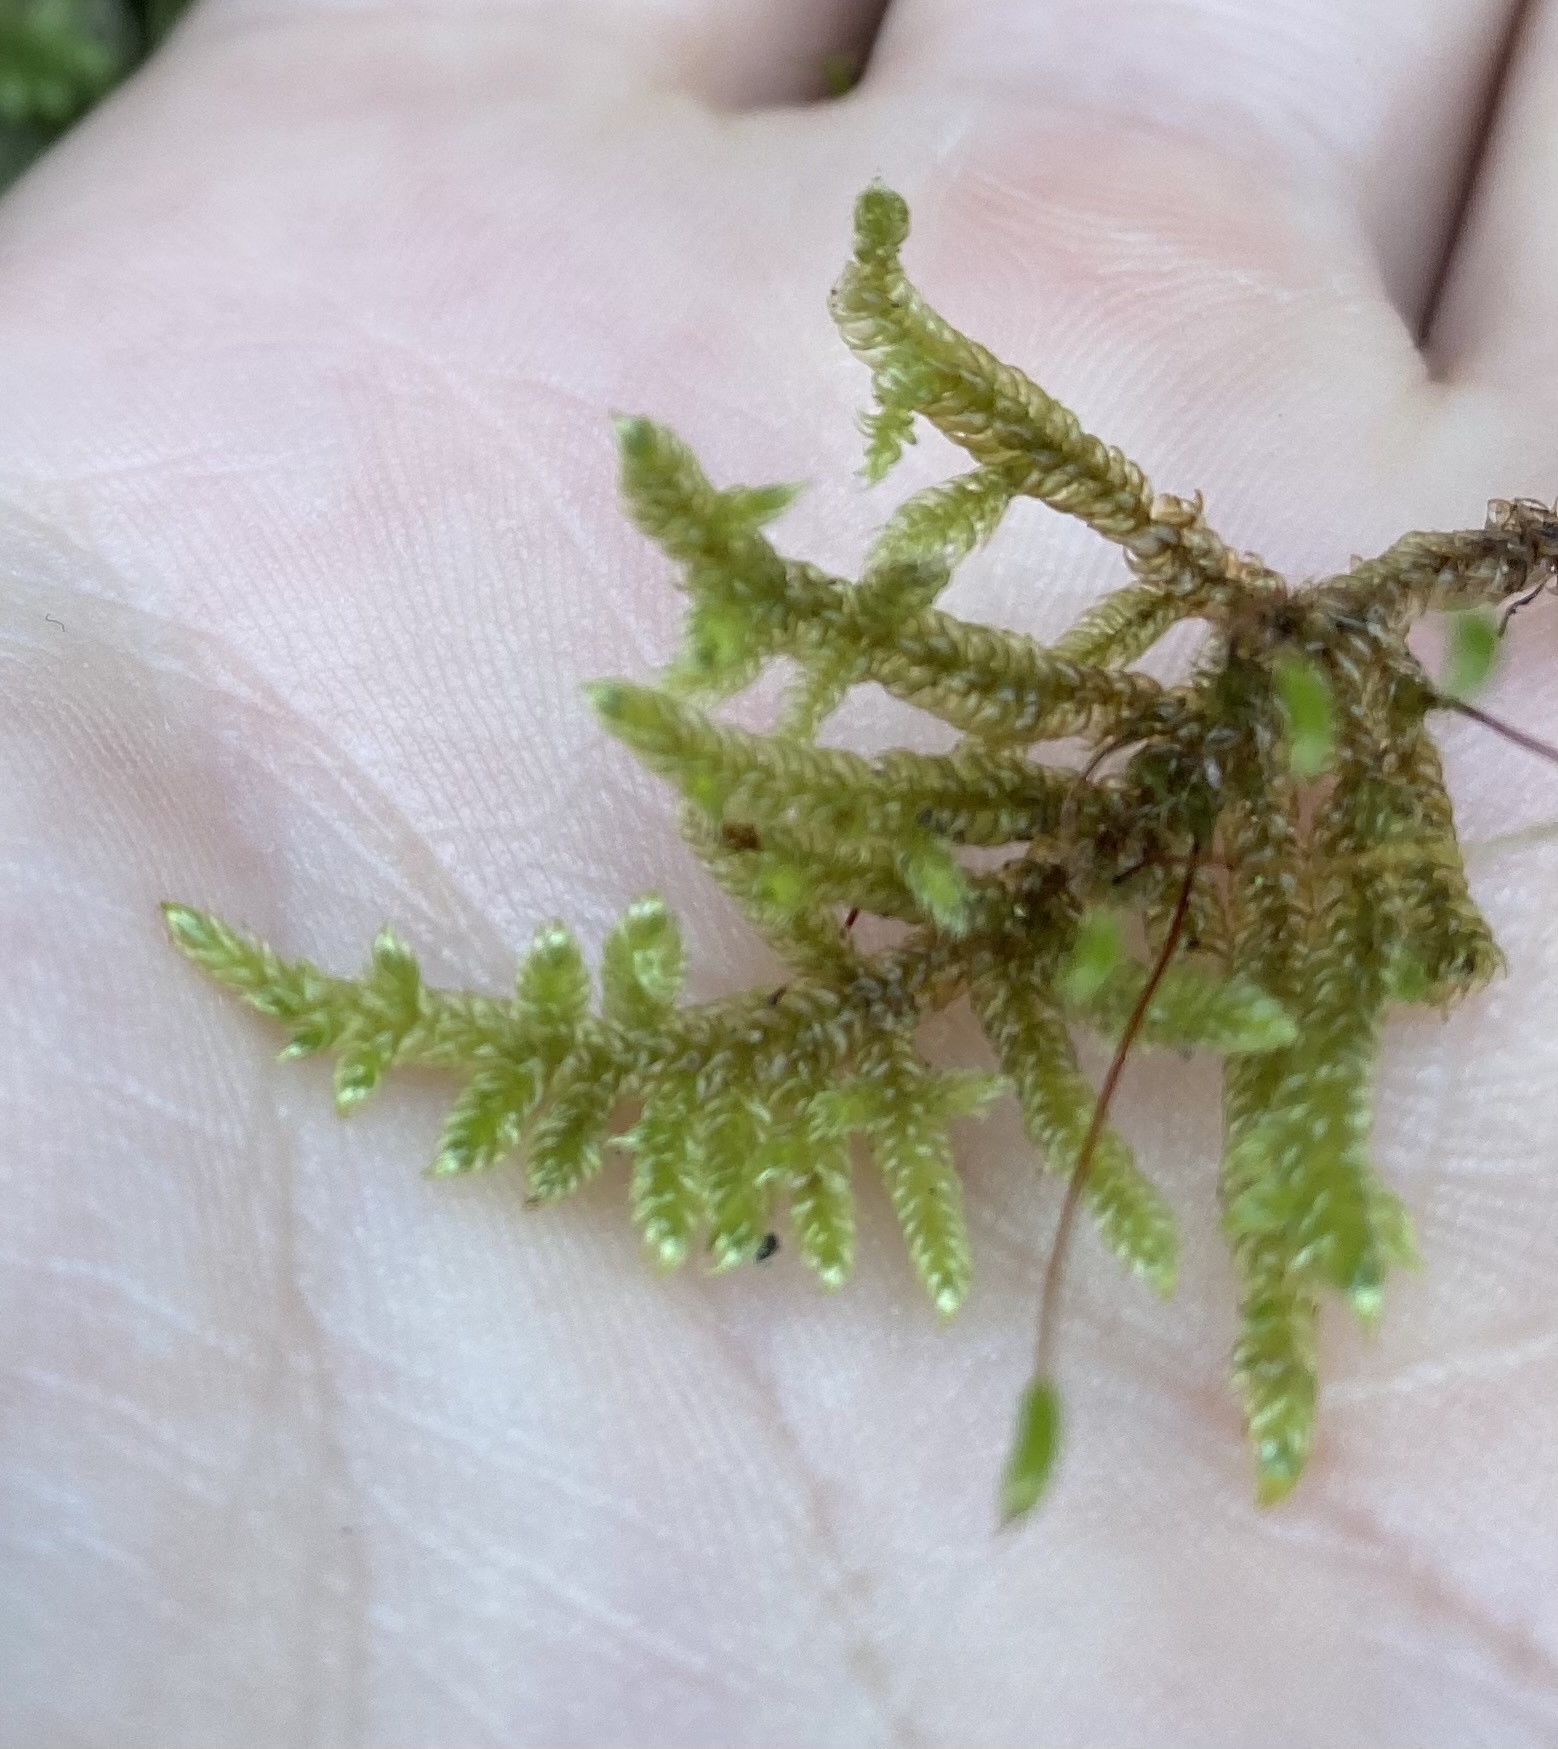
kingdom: Plantae
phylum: Bryophyta
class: Bryopsida
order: Hypnales
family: Hypnaceae
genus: Hypnum
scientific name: Hypnum cupressiforme
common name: Cypress-leaved plait-moss
